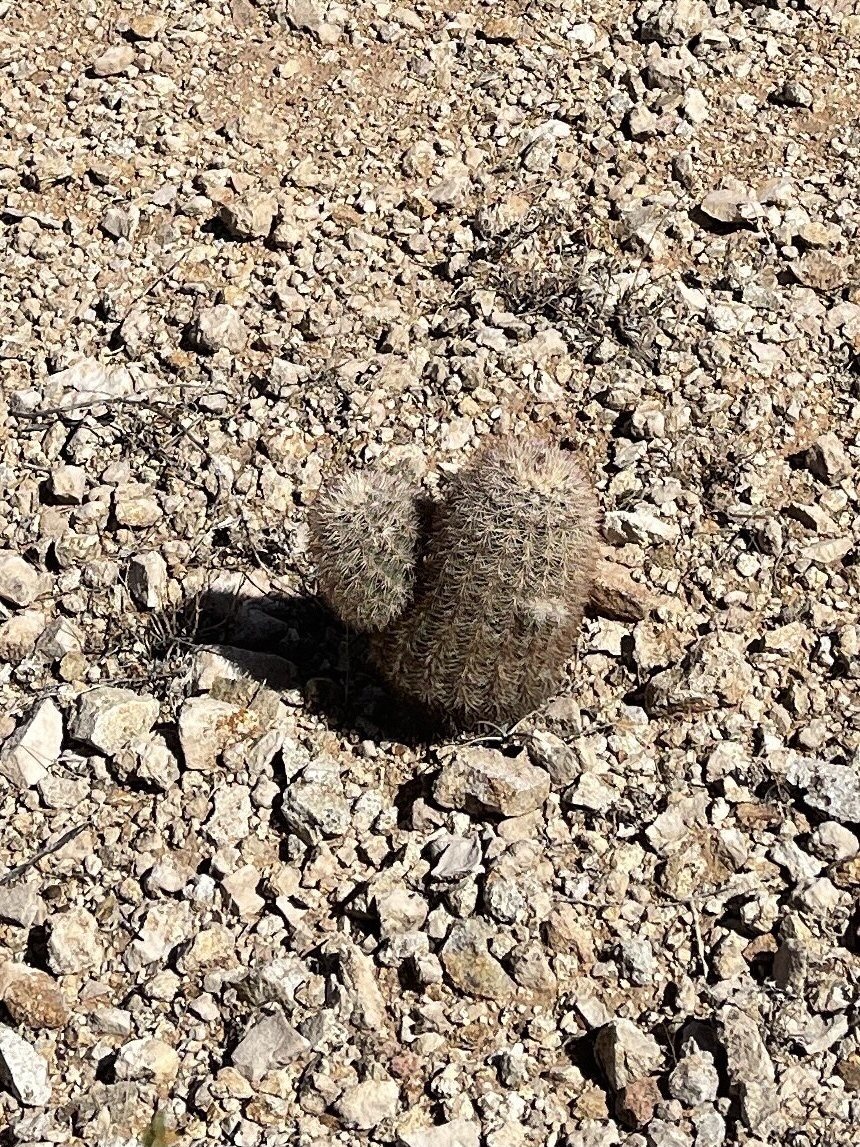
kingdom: Plantae
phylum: Tracheophyta
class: Magnoliopsida
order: Caryophyllales
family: Cactaceae
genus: Echinocereus
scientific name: Echinocereus dasyacanthus
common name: Spiny hedgehog cactus
